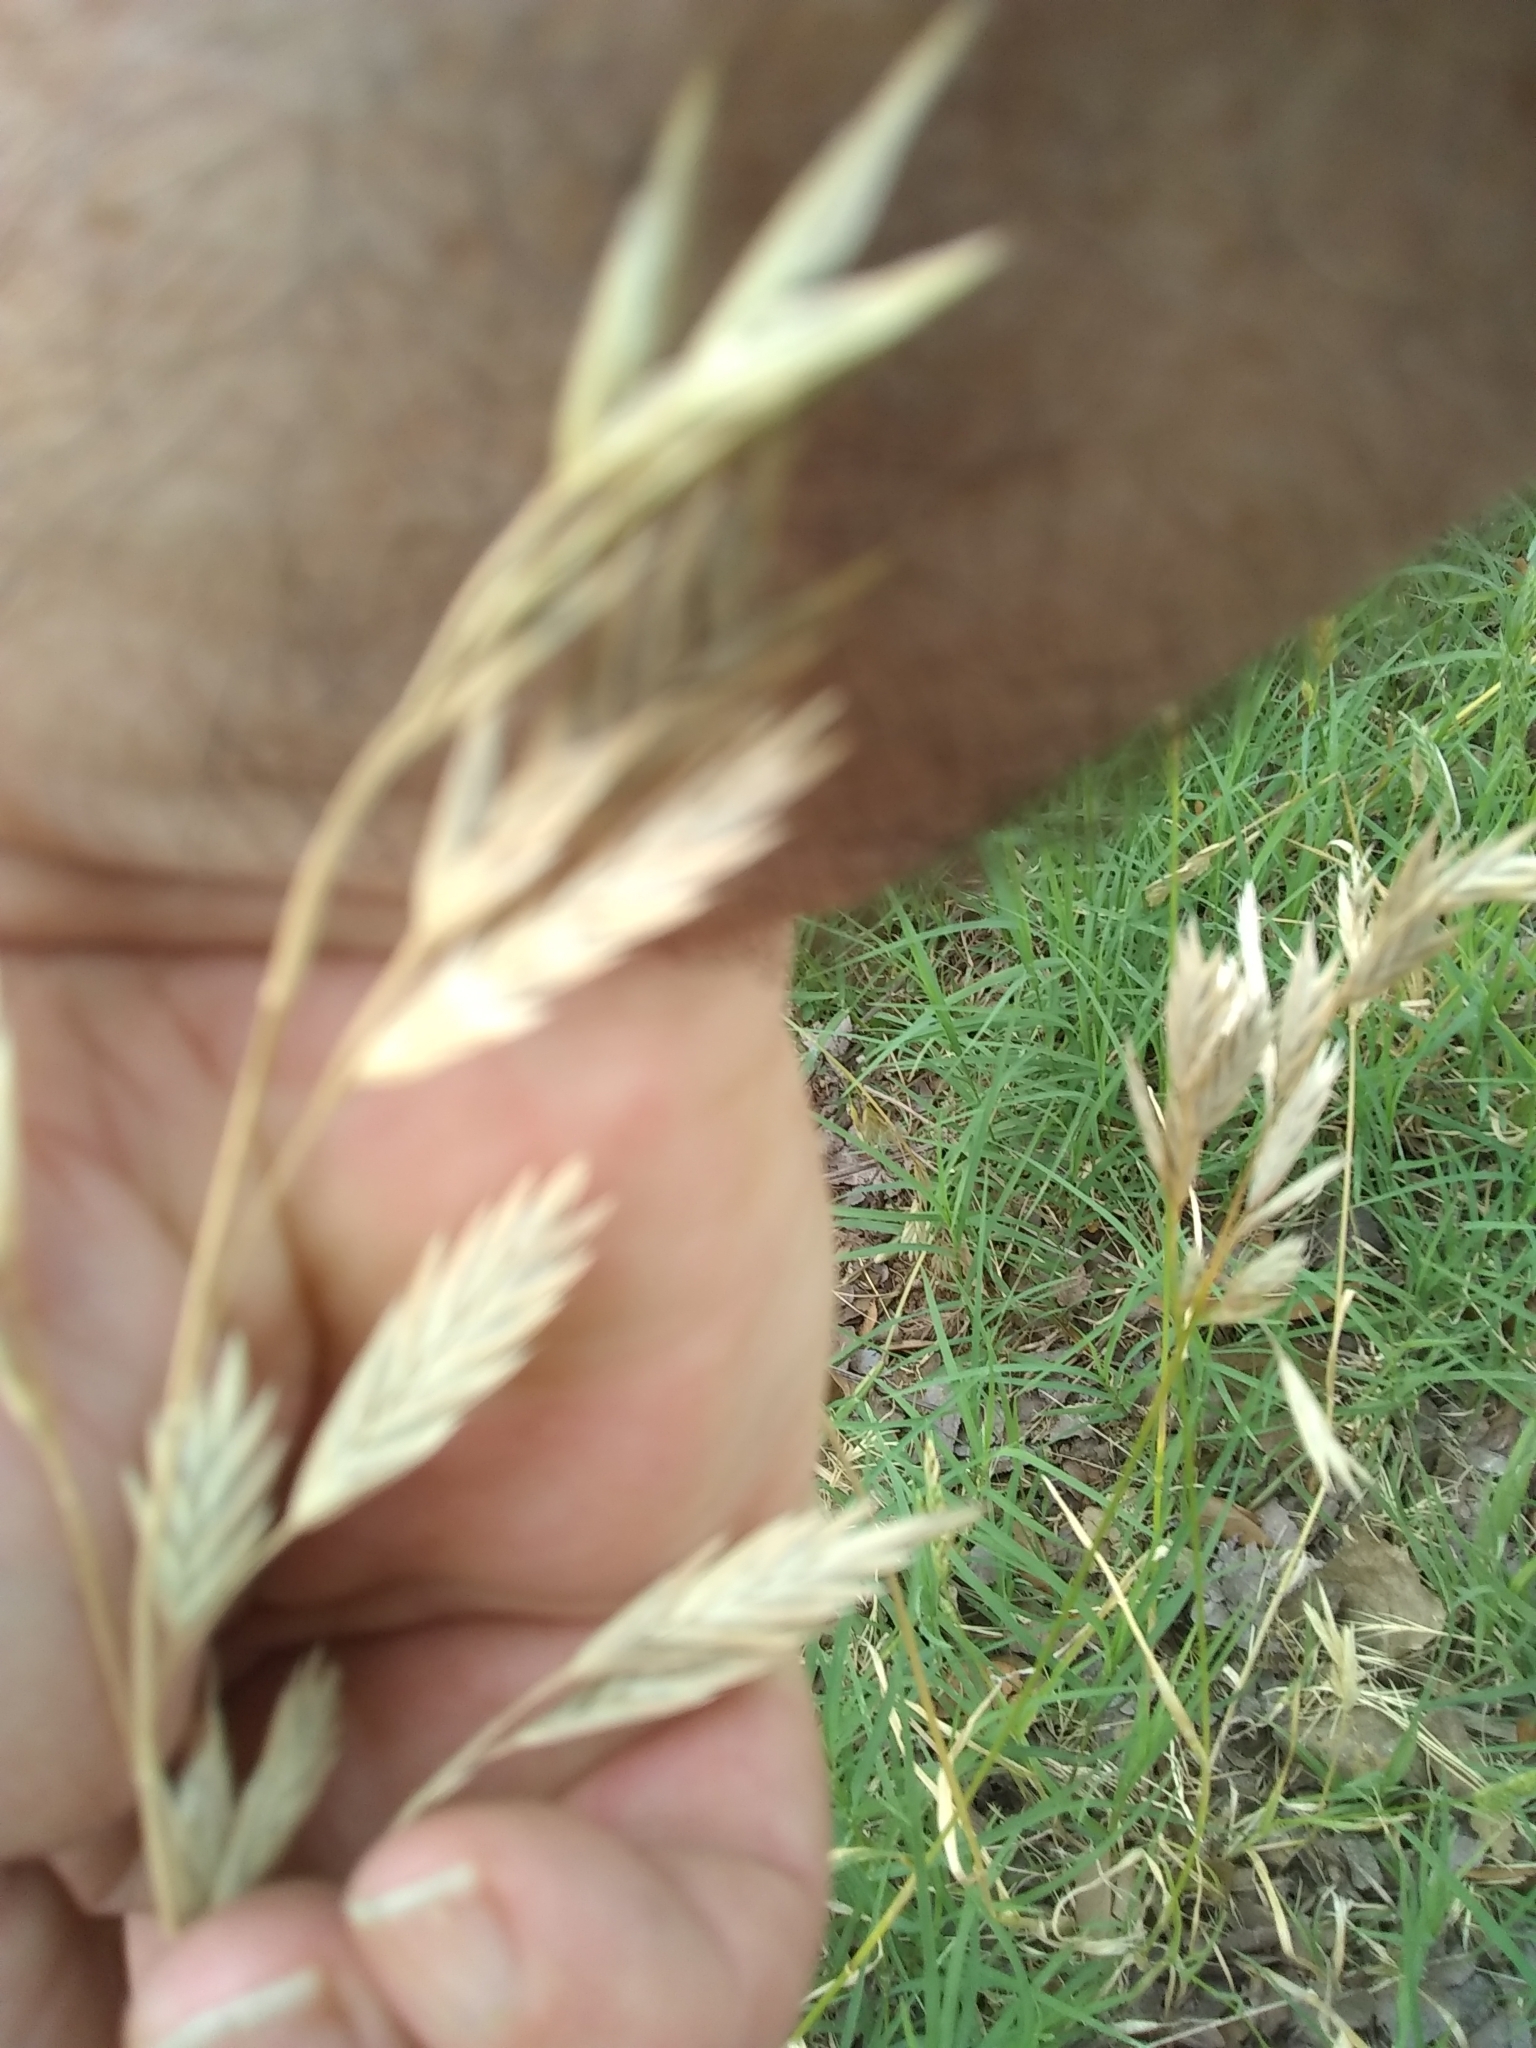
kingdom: Plantae
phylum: Tracheophyta
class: Liliopsida
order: Poales
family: Poaceae
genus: Bromus
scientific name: Bromus catharticus
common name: Rescuegrass
